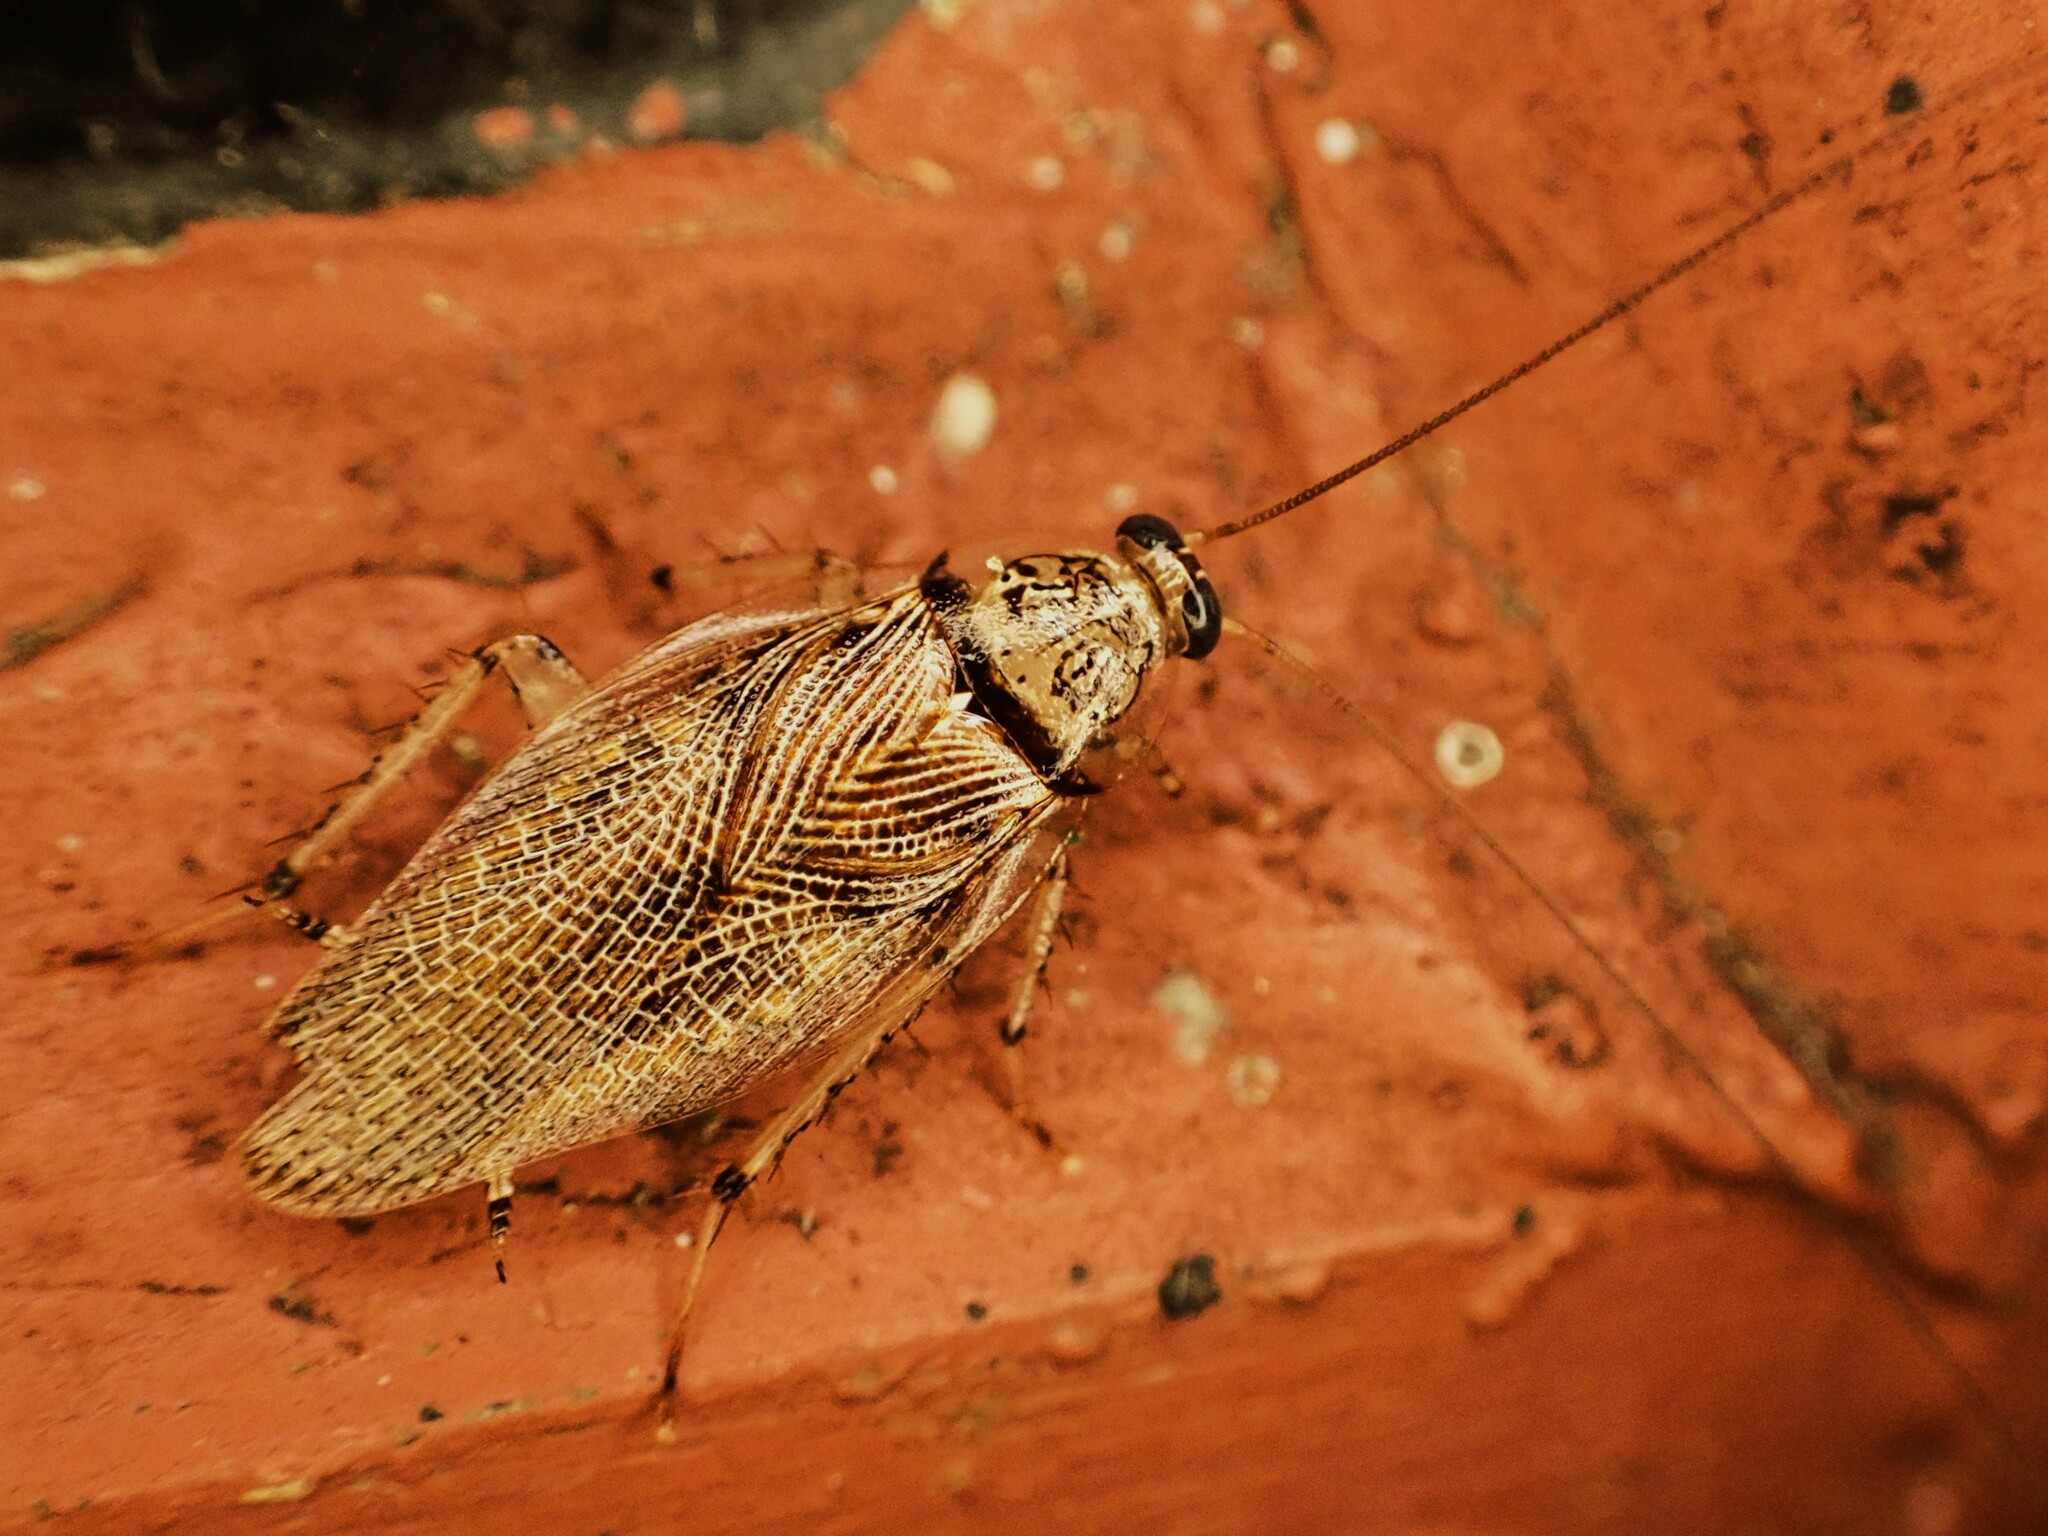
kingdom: Animalia
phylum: Arthropoda
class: Insecta
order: Blattodea
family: Ectobiidae
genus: Balta
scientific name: Balta notulata
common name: Cockroach
